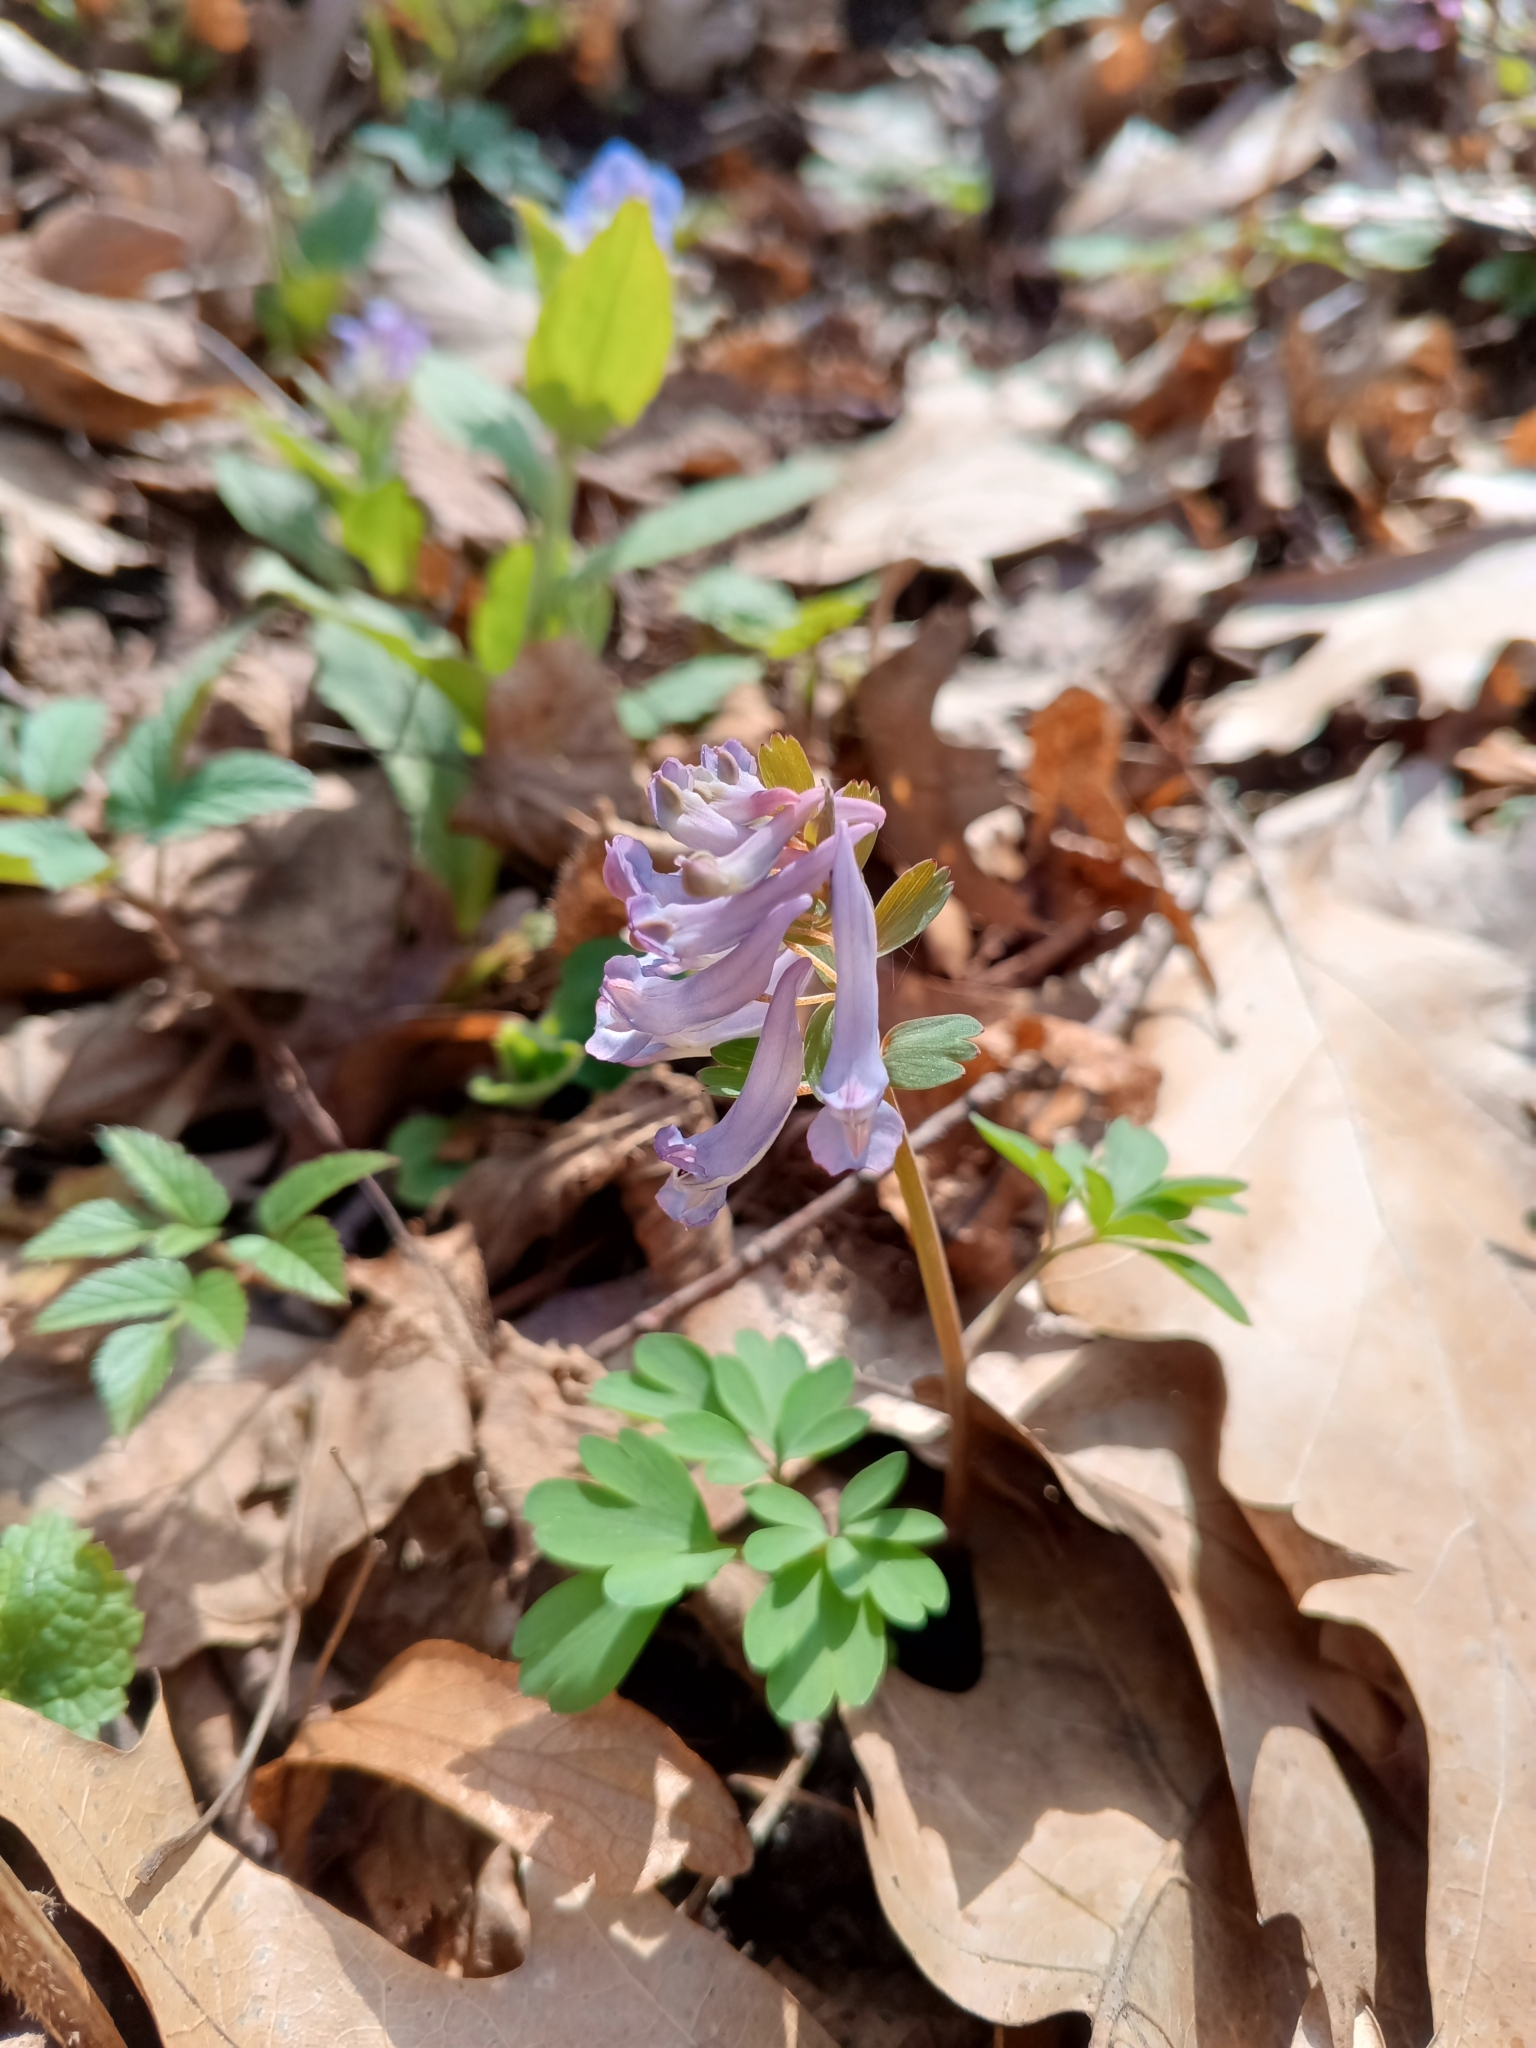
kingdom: Plantae
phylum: Tracheophyta
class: Magnoliopsida
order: Ranunculales
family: Papaveraceae
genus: Corydalis
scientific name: Corydalis solida
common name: Bird-in-a-bush
